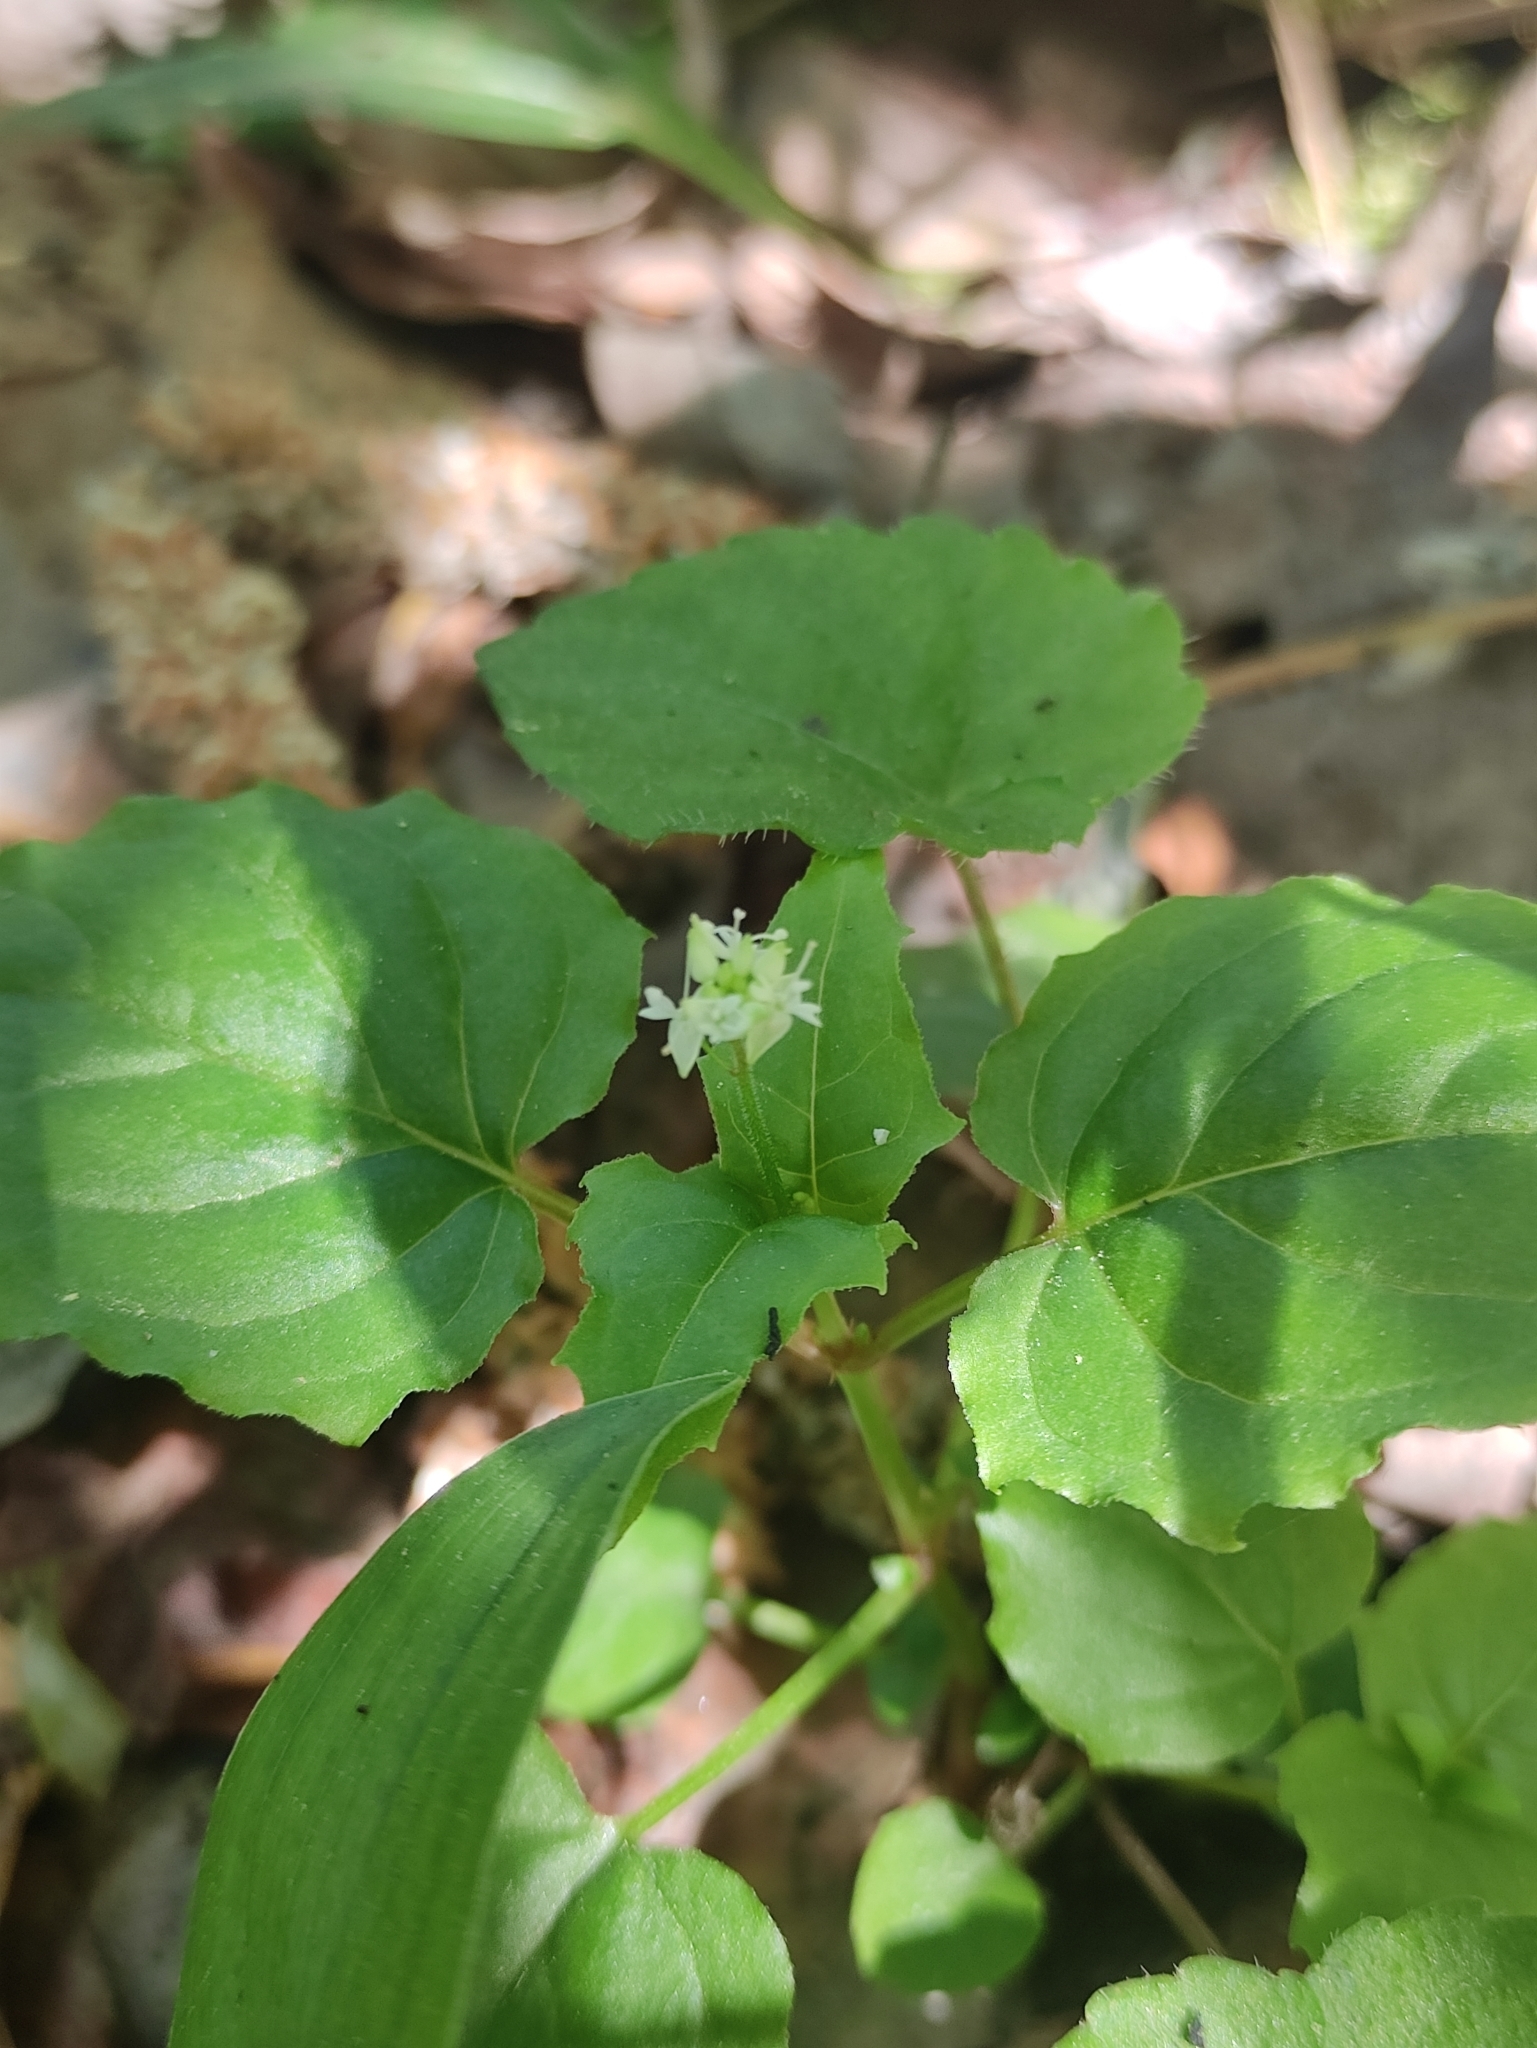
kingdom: Plantae
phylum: Tracheophyta
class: Magnoliopsida
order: Myrtales
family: Onagraceae
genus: Circaea
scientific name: Circaea alpina
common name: Alpine enchanter's-nightshade
